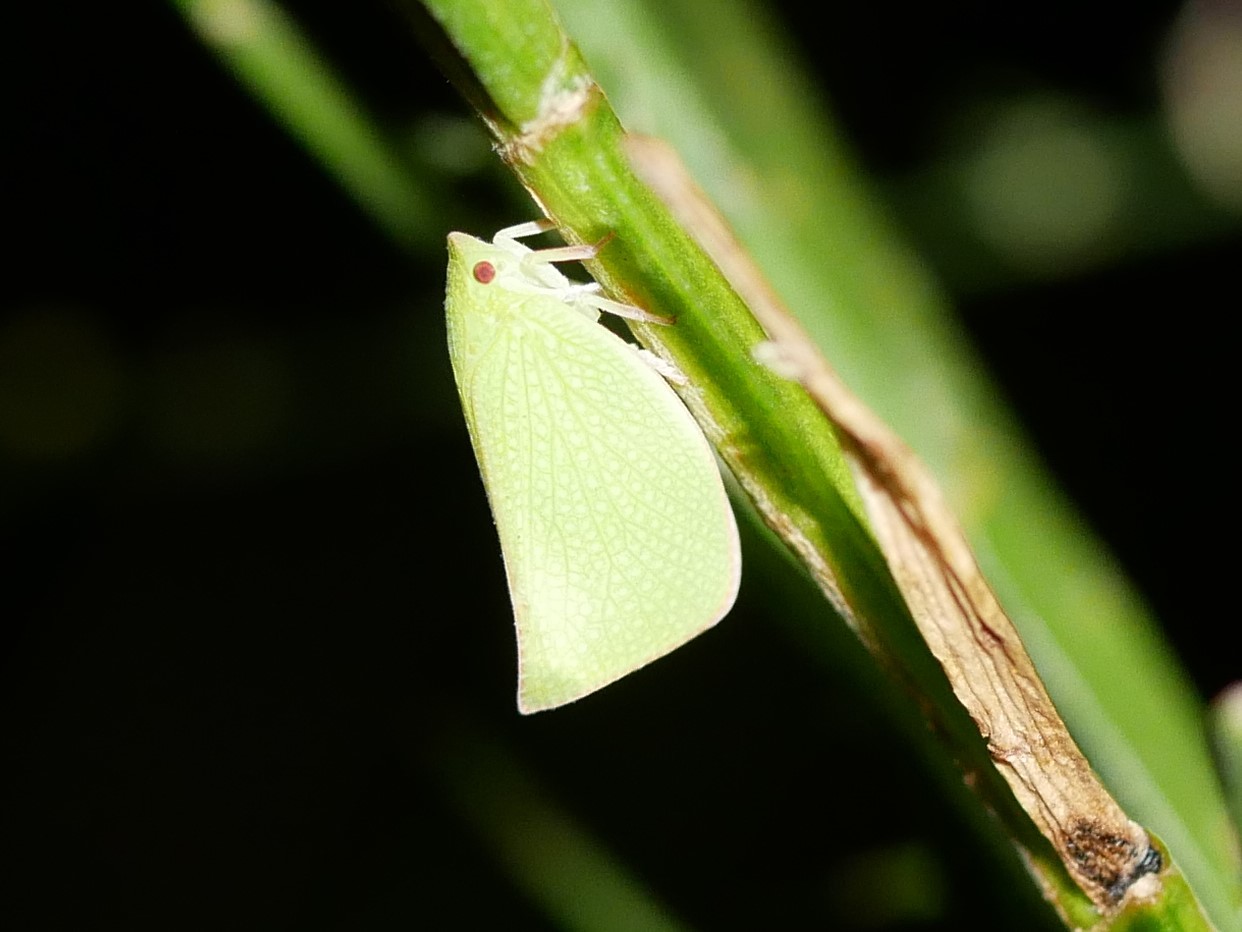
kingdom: Animalia
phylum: Arthropoda
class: Insecta
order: Hemiptera
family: Flatidae
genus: Siphanta
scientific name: Siphanta acuta
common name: Torpedo bug
